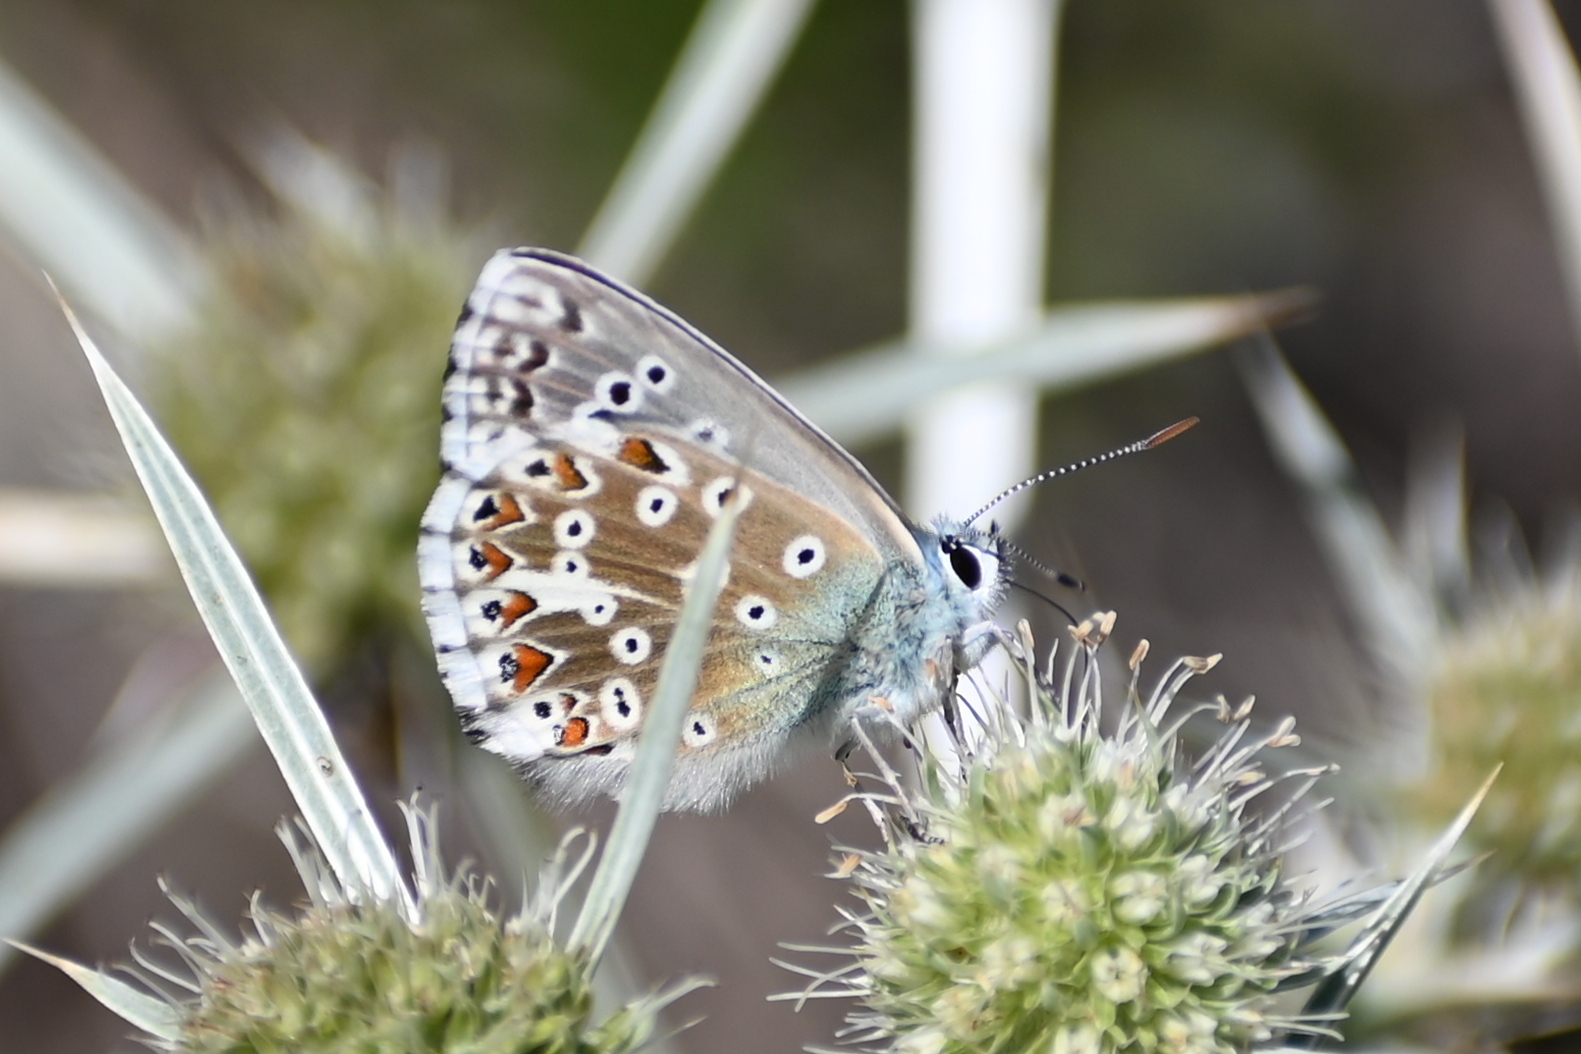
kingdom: Animalia
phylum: Arthropoda
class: Insecta
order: Lepidoptera
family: Lycaenidae
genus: Lysandra
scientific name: Lysandra coridon
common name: Chalkhill blue
